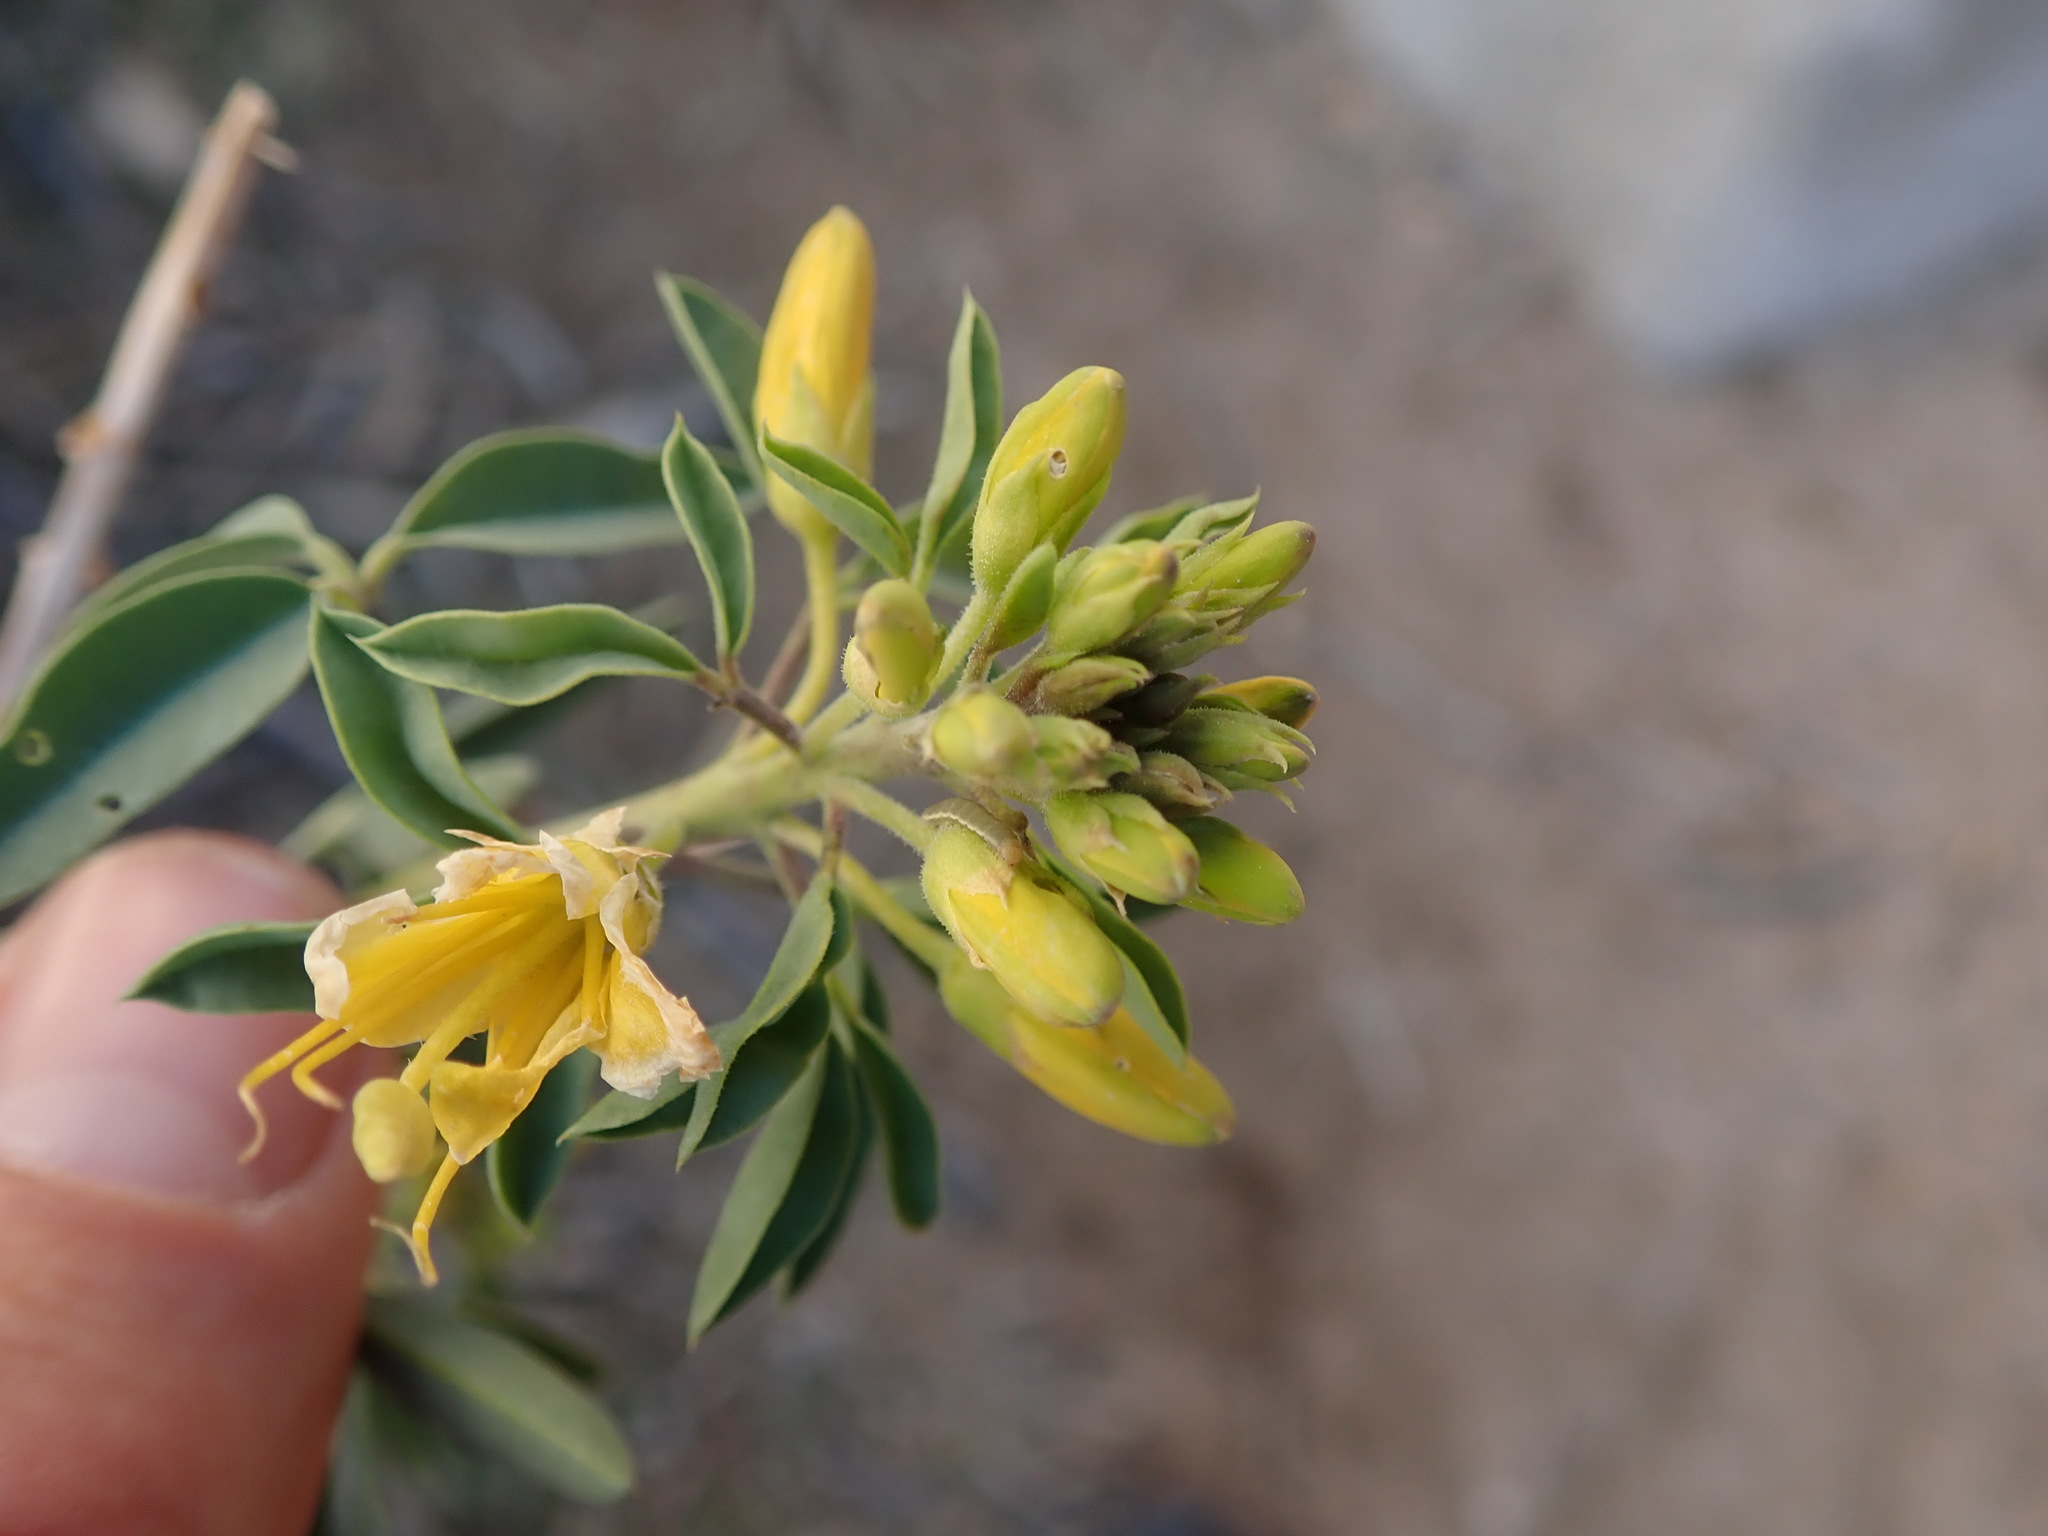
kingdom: Plantae
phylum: Tracheophyta
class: Magnoliopsida
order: Brassicales
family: Cleomaceae
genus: Cleomella
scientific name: Cleomella arborea
